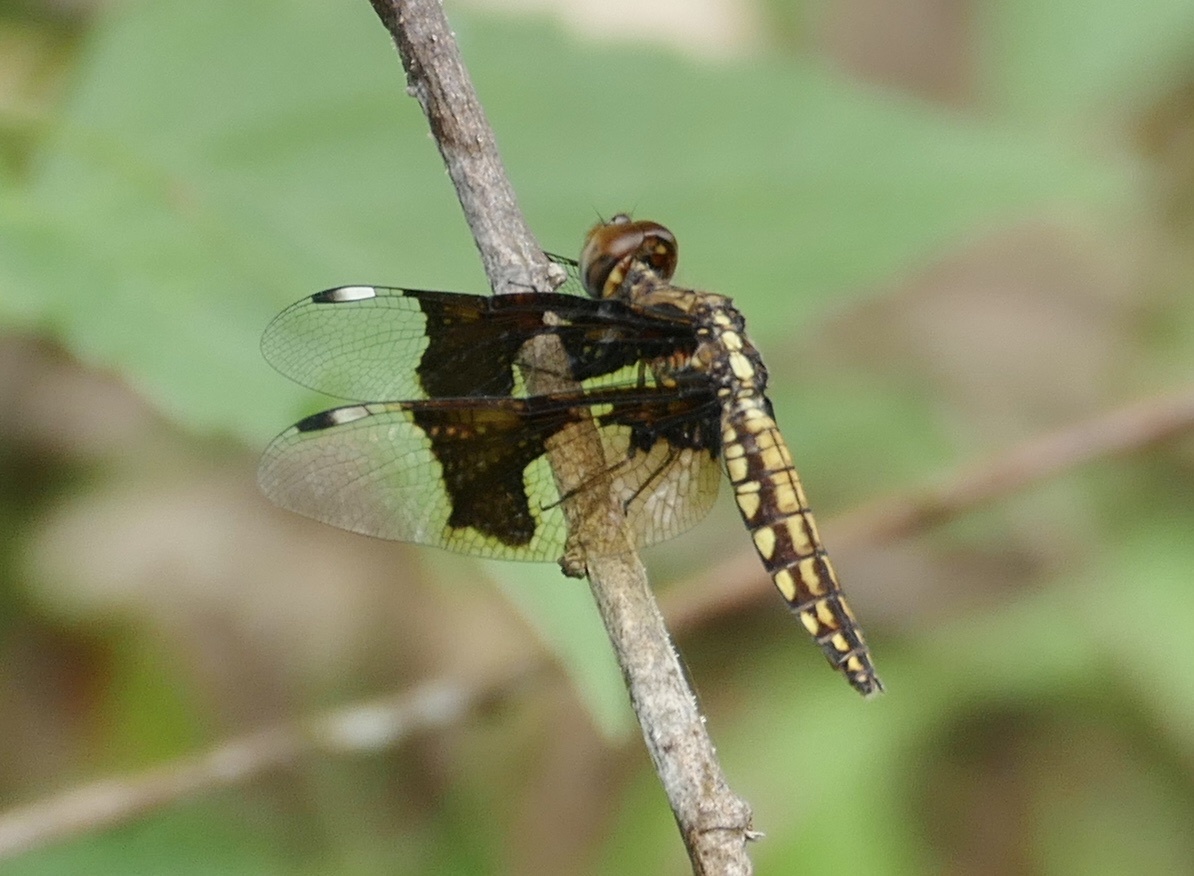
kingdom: Animalia
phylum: Arthropoda
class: Insecta
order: Odonata
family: Libellulidae
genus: Palpopleura
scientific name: Palpopleura lucia
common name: Lucia widow
